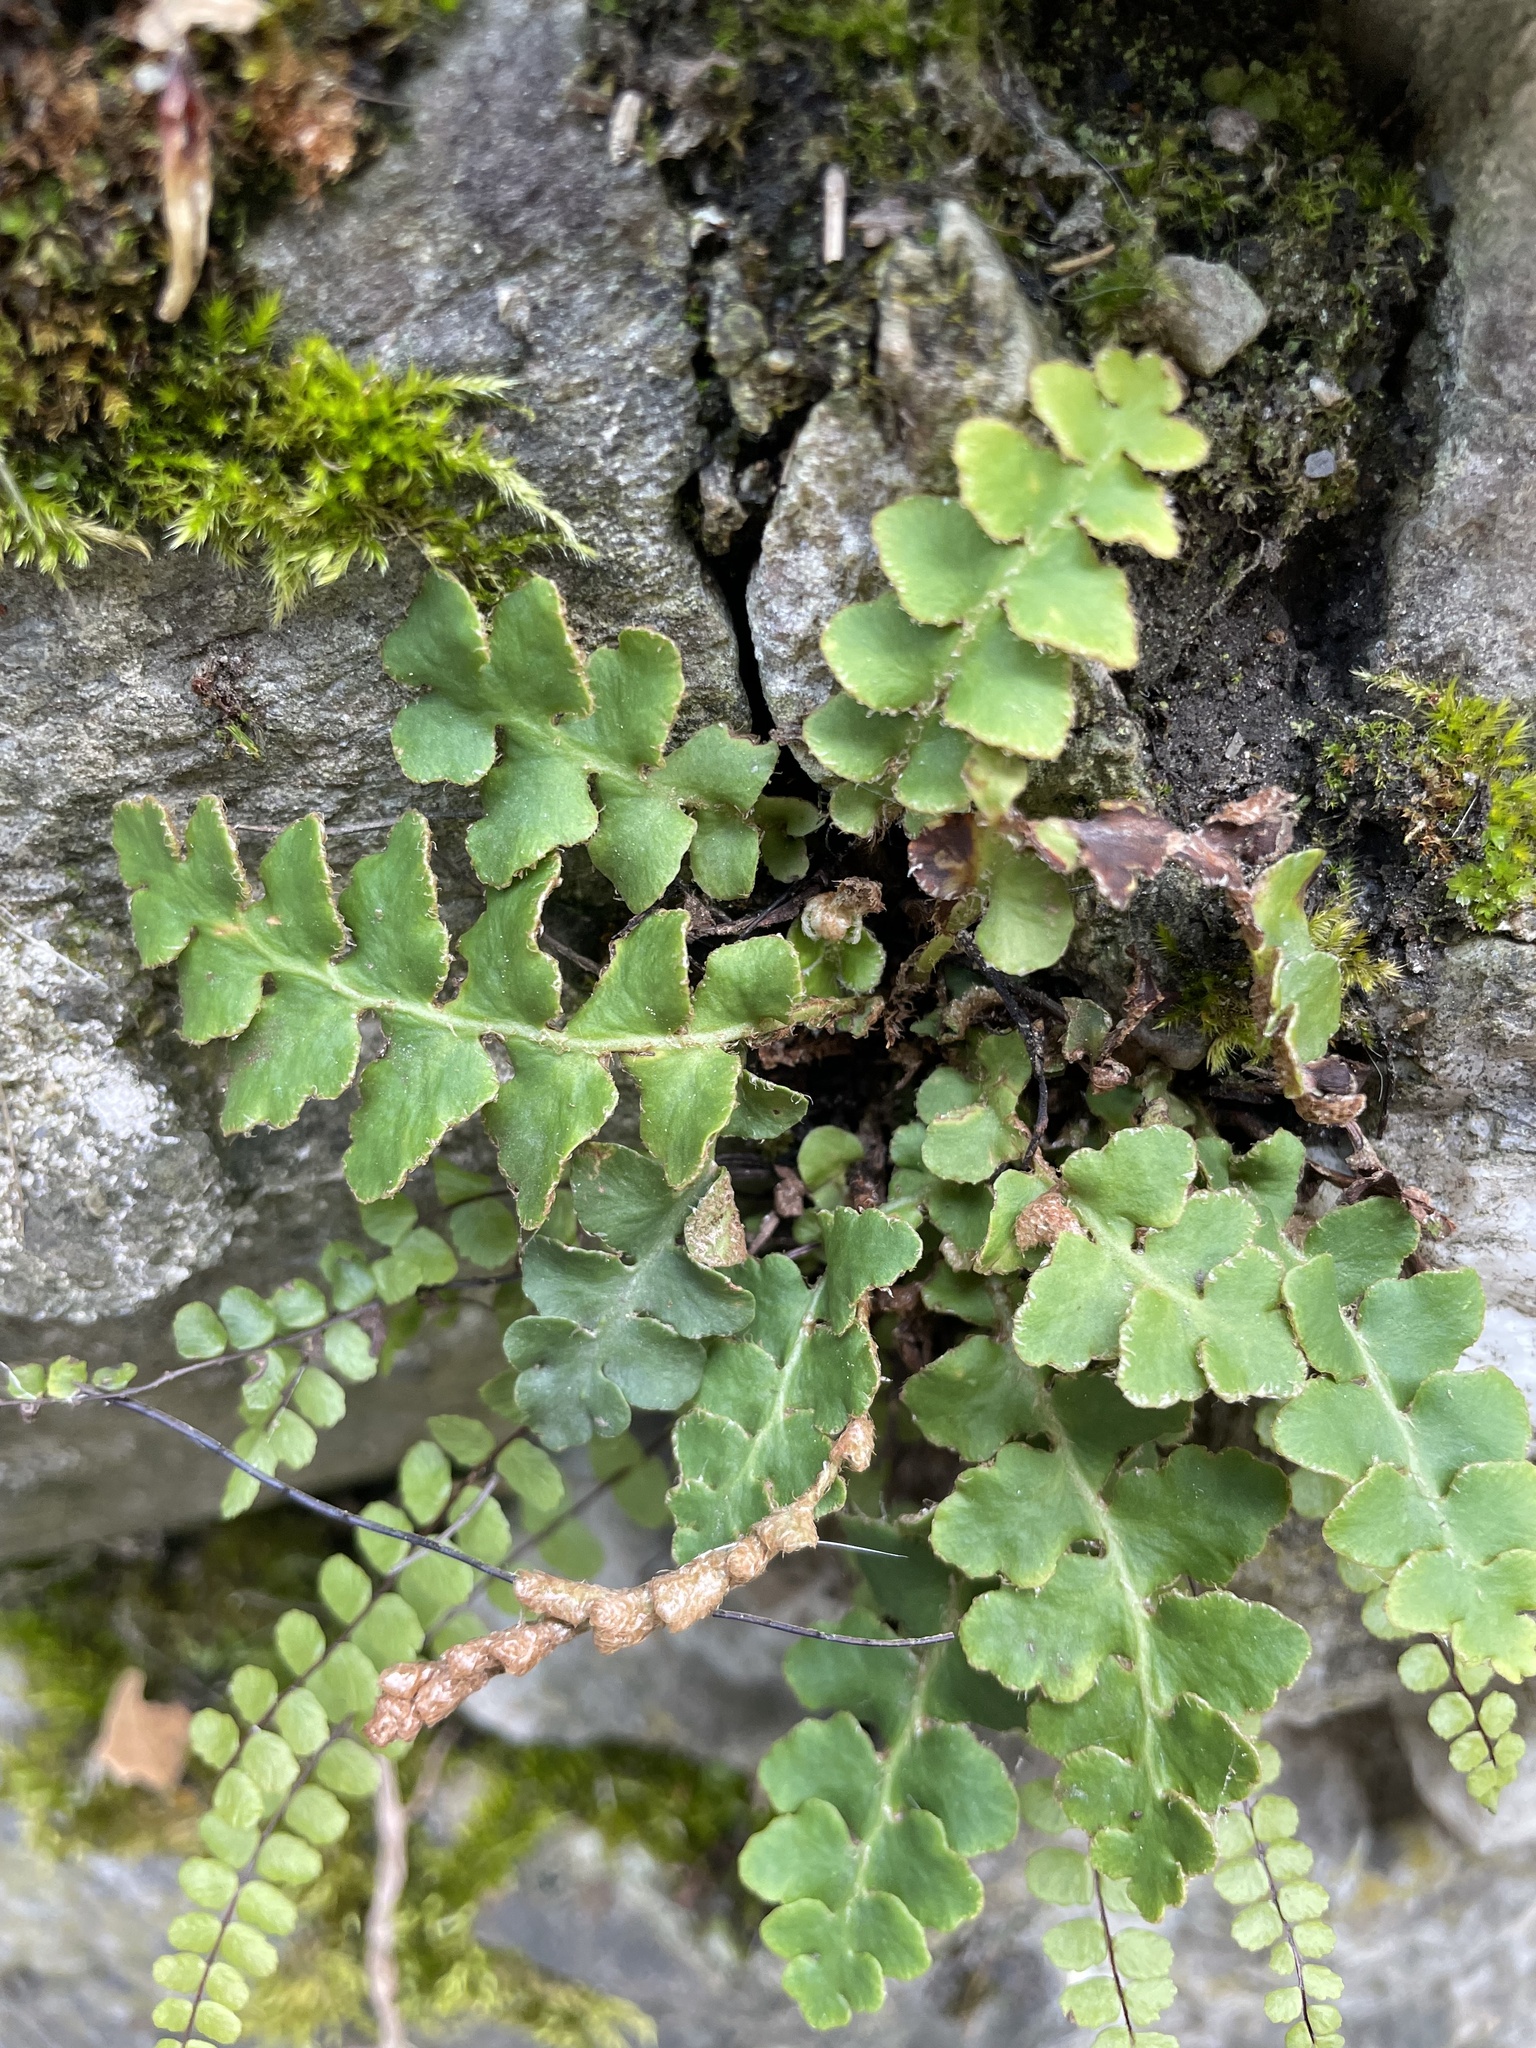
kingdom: Plantae
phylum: Tracheophyta
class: Polypodiopsida
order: Polypodiales
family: Aspleniaceae
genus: Asplenium
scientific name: Asplenium ceterach
